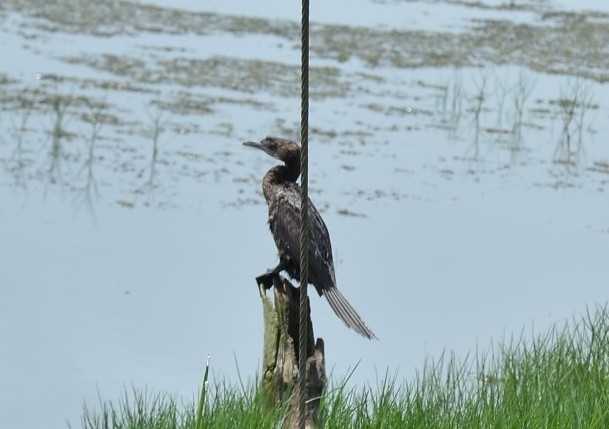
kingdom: Animalia
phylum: Chordata
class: Aves
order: Suliformes
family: Phalacrocoracidae
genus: Microcarbo
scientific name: Microcarbo niger
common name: Little cormorant
